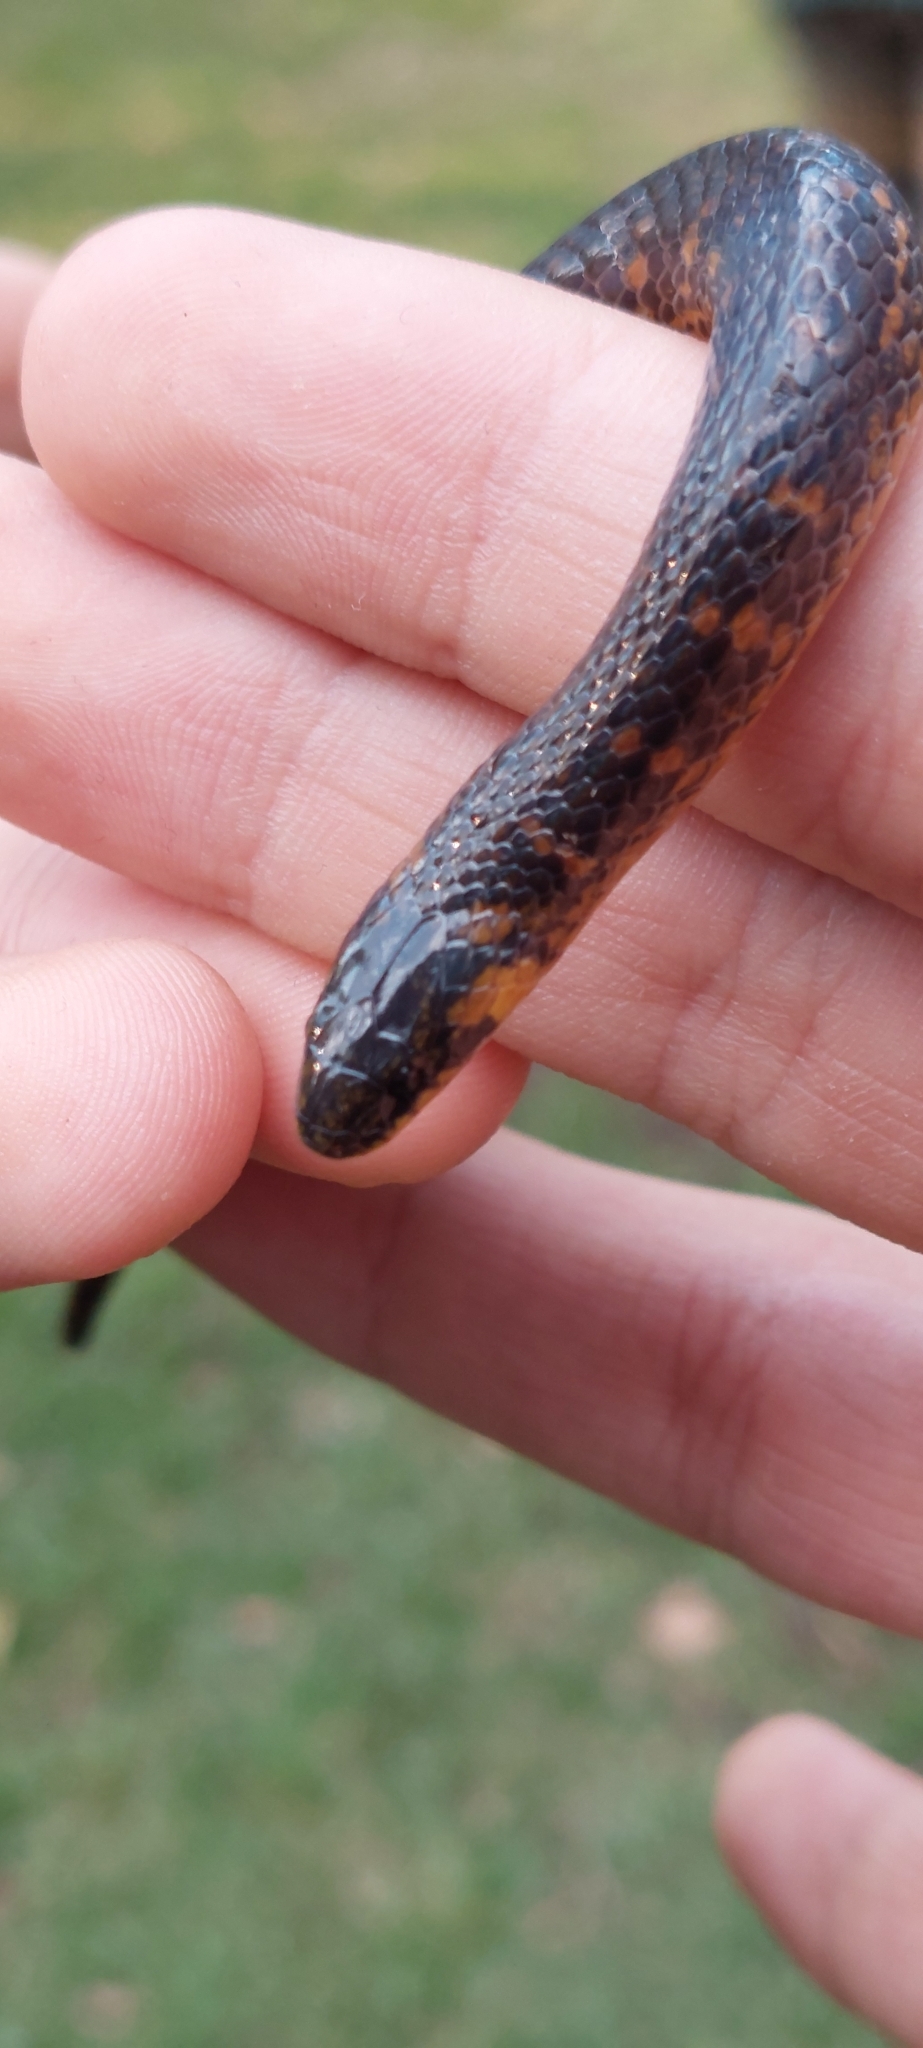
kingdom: Animalia
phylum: Chordata
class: Squamata
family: Colubridae
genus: Atractus
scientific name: Atractus crassicaudatus
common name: Thickhead ground snake
